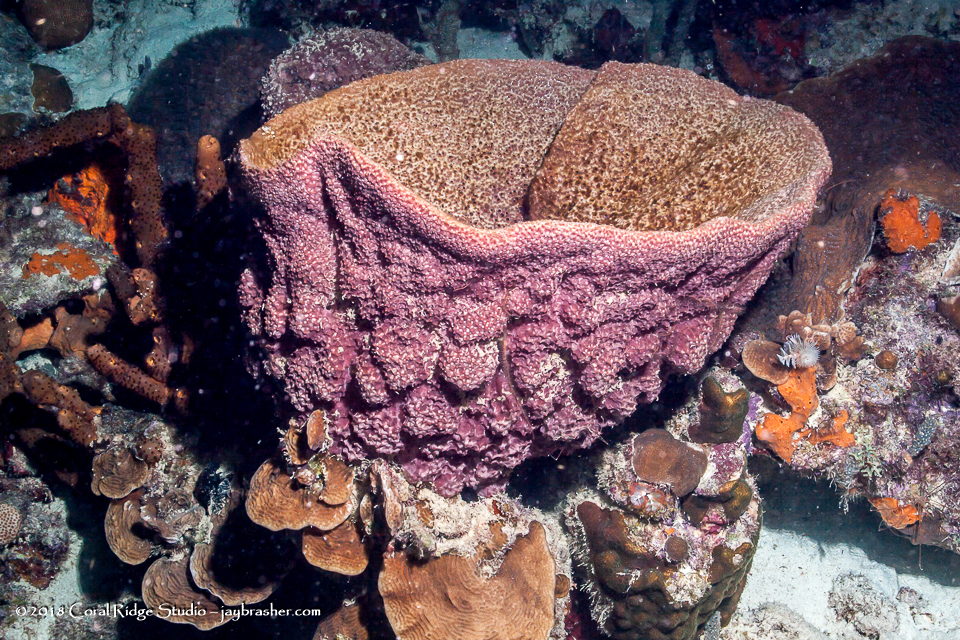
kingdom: Animalia
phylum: Porifera
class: Demospongiae
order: Dictyoceratida
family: Irciniidae
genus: Ircinia
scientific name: Ircinia campana
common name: Vase sponge
